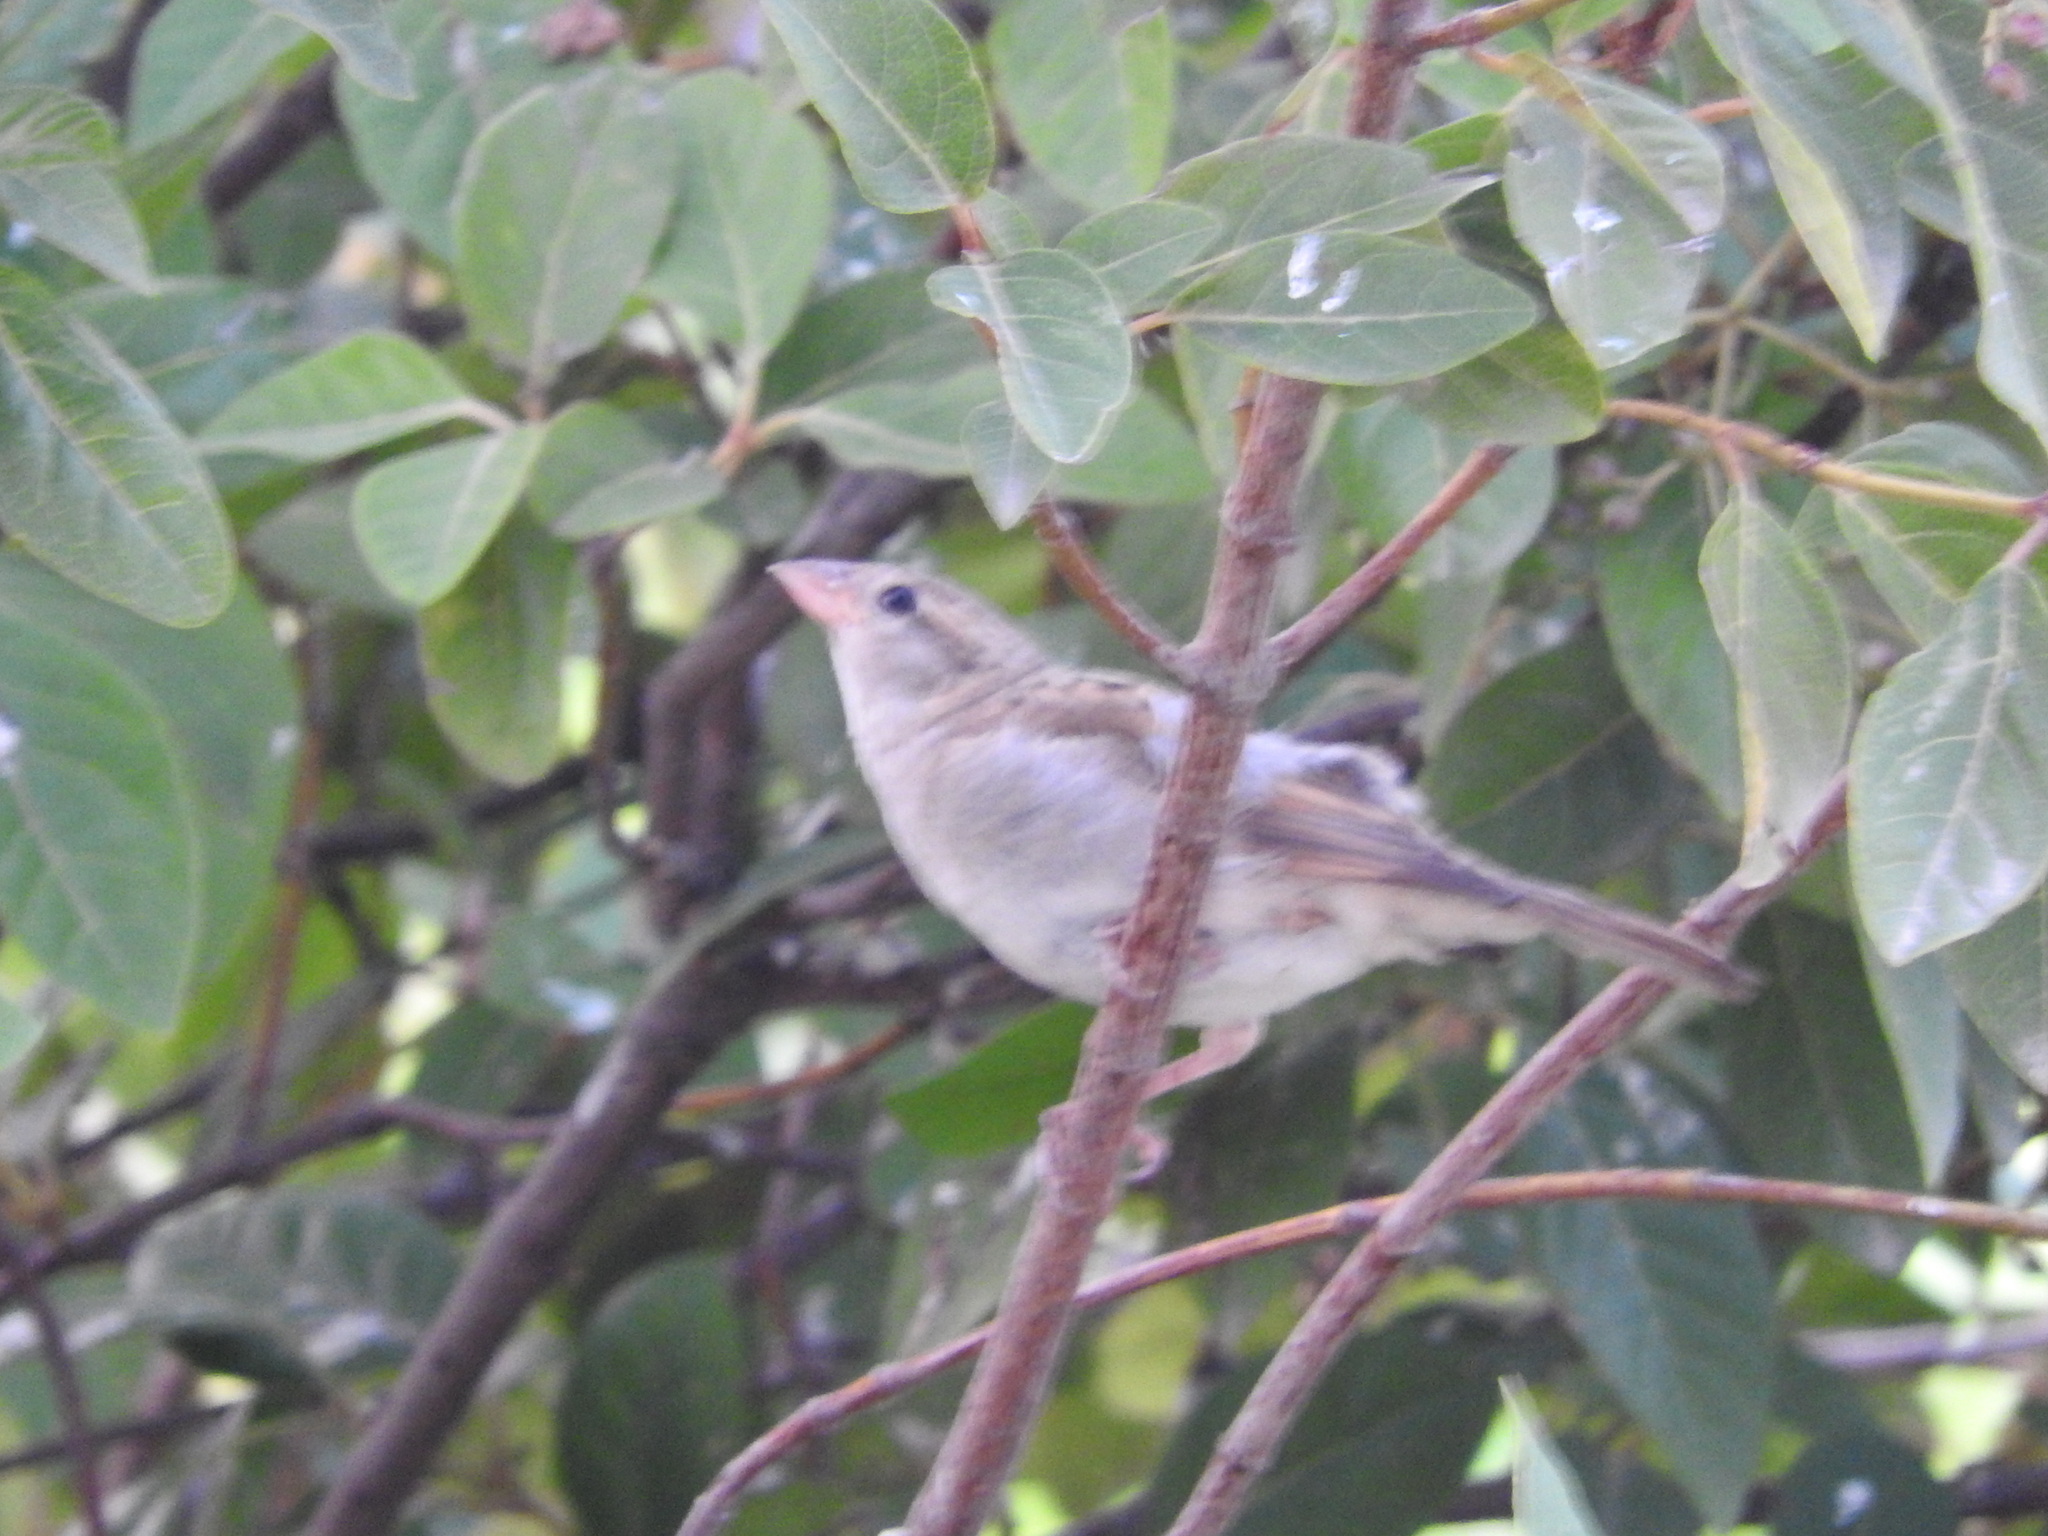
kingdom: Animalia
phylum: Chordata
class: Aves
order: Passeriformes
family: Passeridae
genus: Passer
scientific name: Passer domesticus
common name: House sparrow
